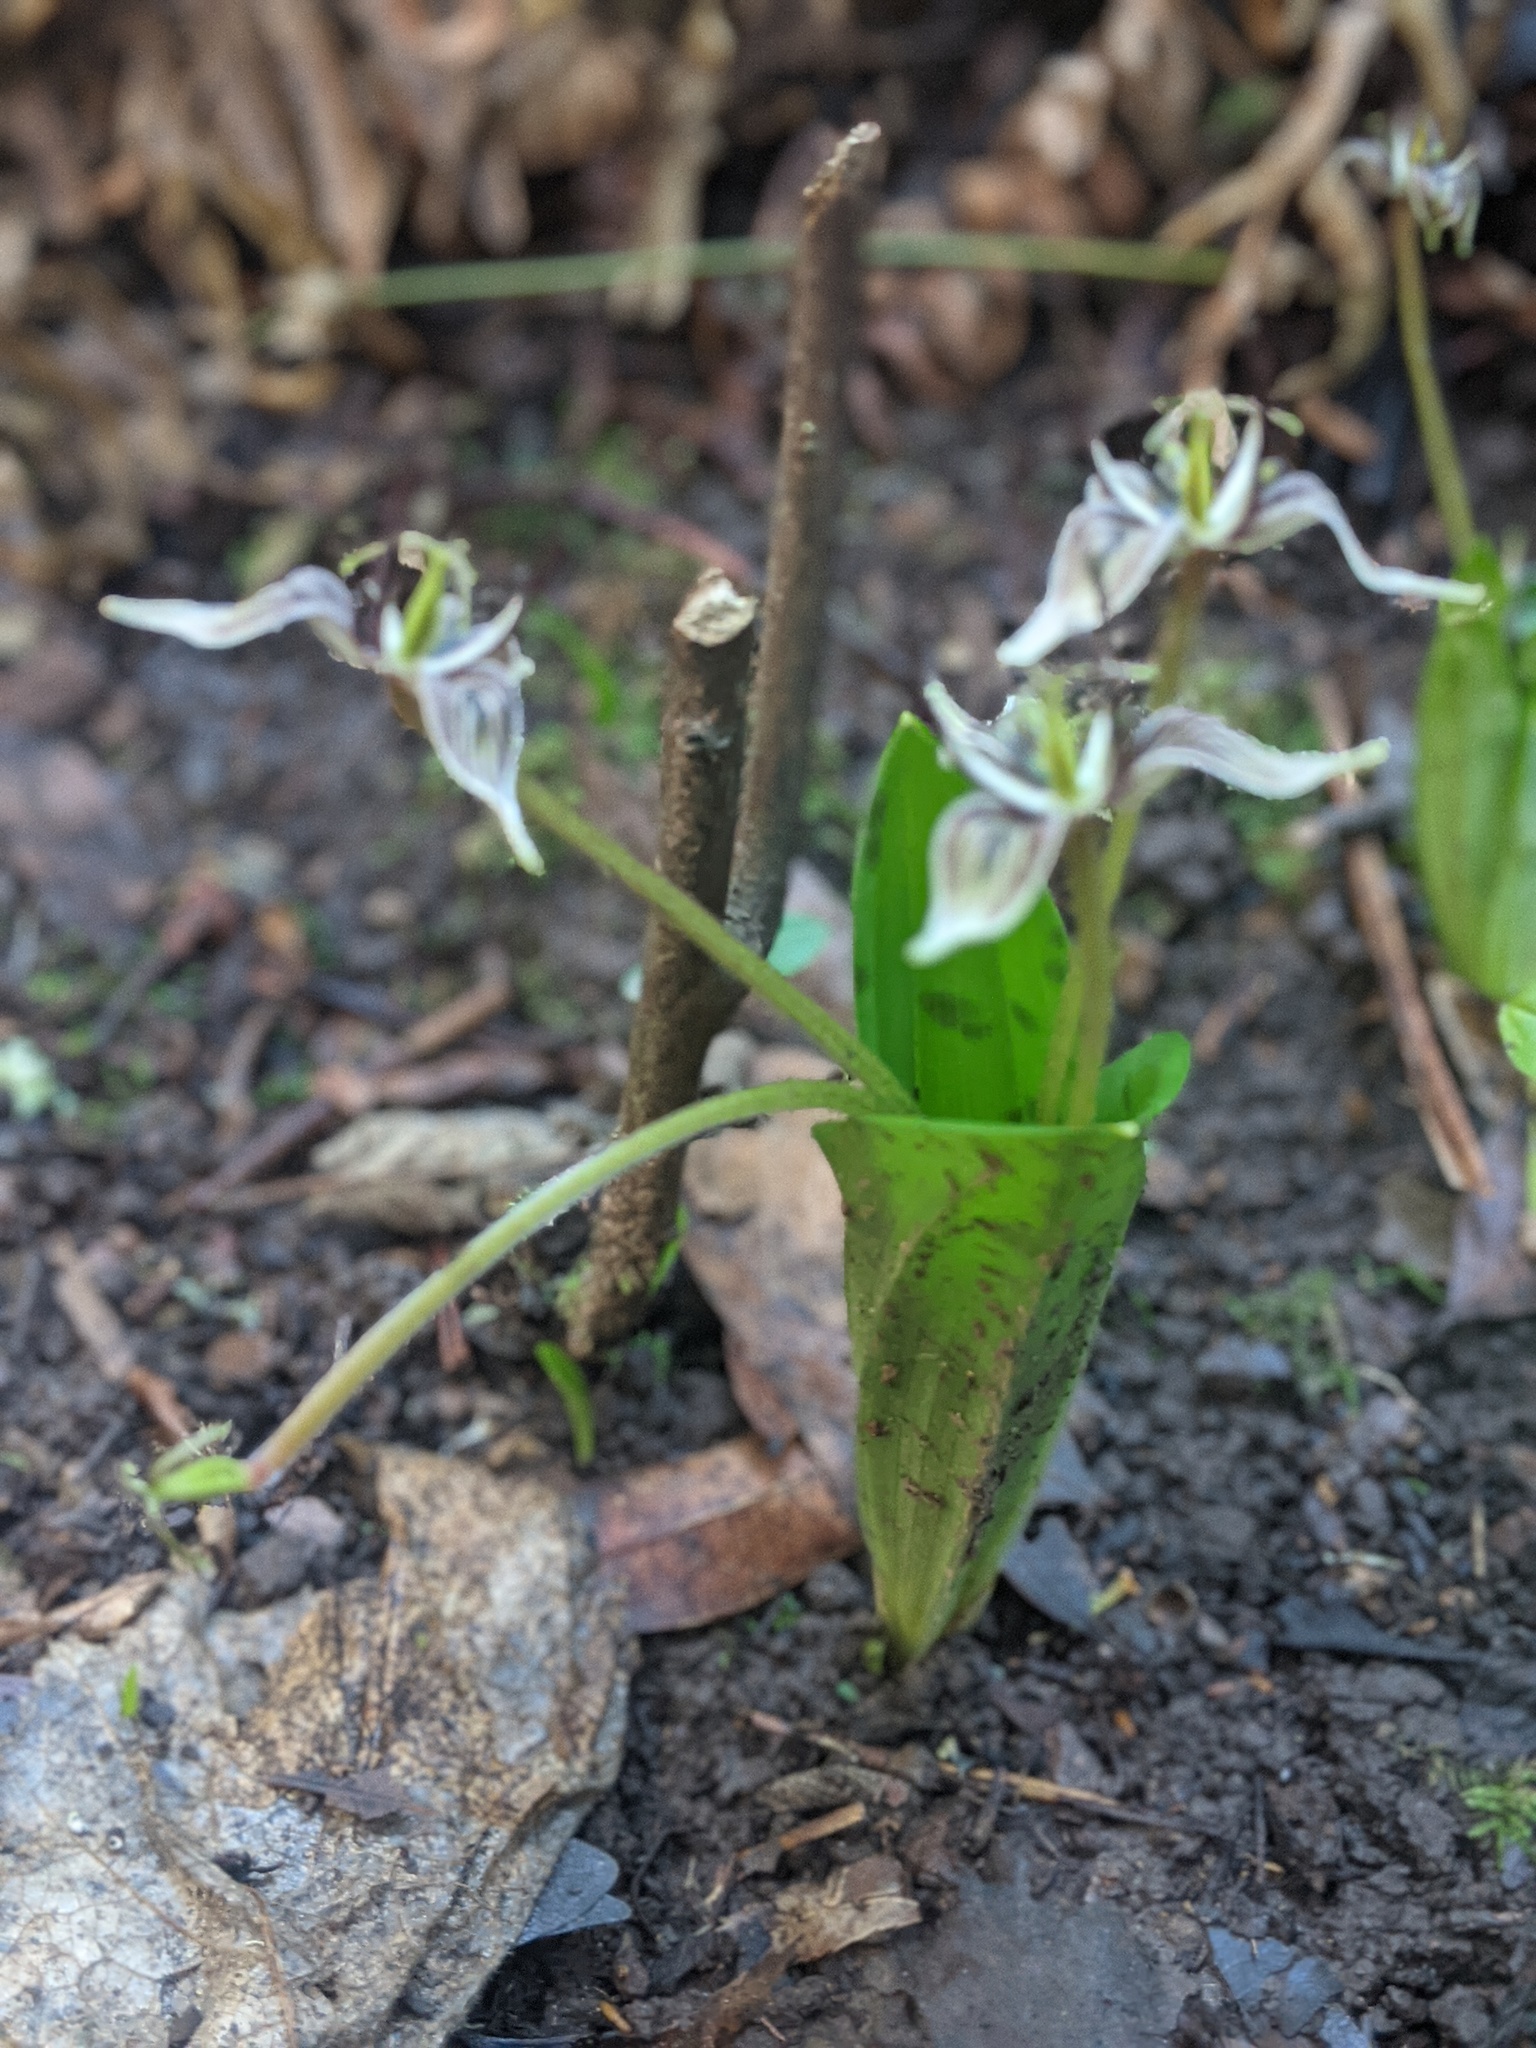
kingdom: Plantae
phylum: Tracheophyta
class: Liliopsida
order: Liliales
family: Liliaceae
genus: Scoliopus
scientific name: Scoliopus bigelovii
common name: Foetid adder's-tongue
